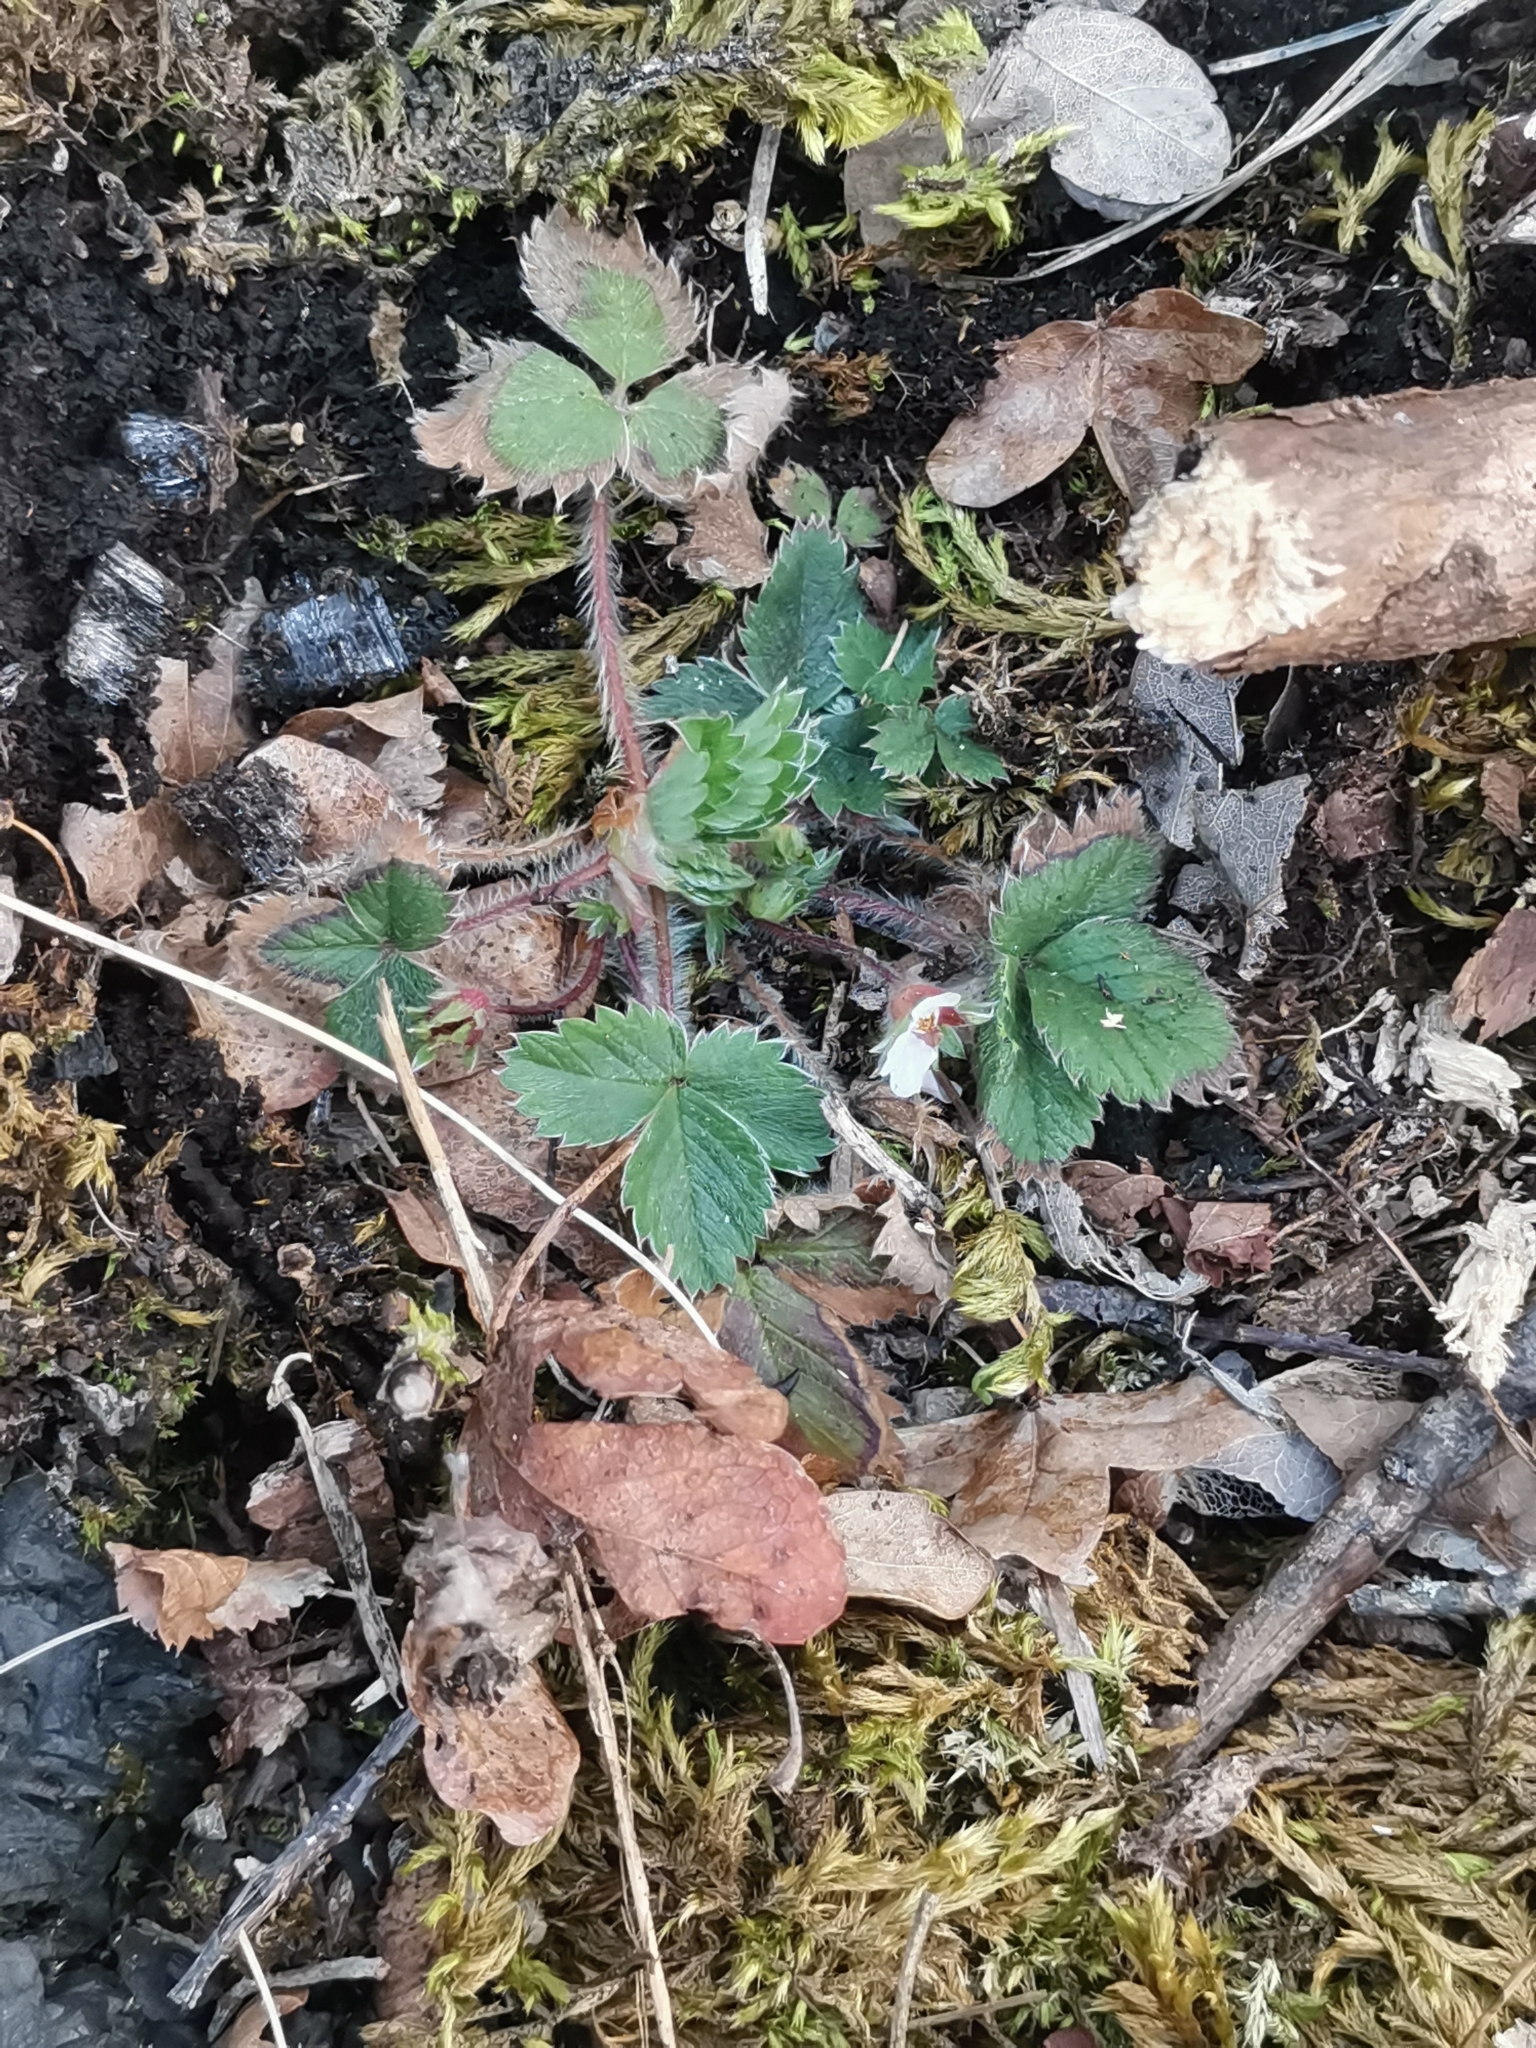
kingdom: Plantae
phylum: Tracheophyta
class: Magnoliopsida
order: Rosales
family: Rosaceae
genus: Potentilla
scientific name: Potentilla micrantha
